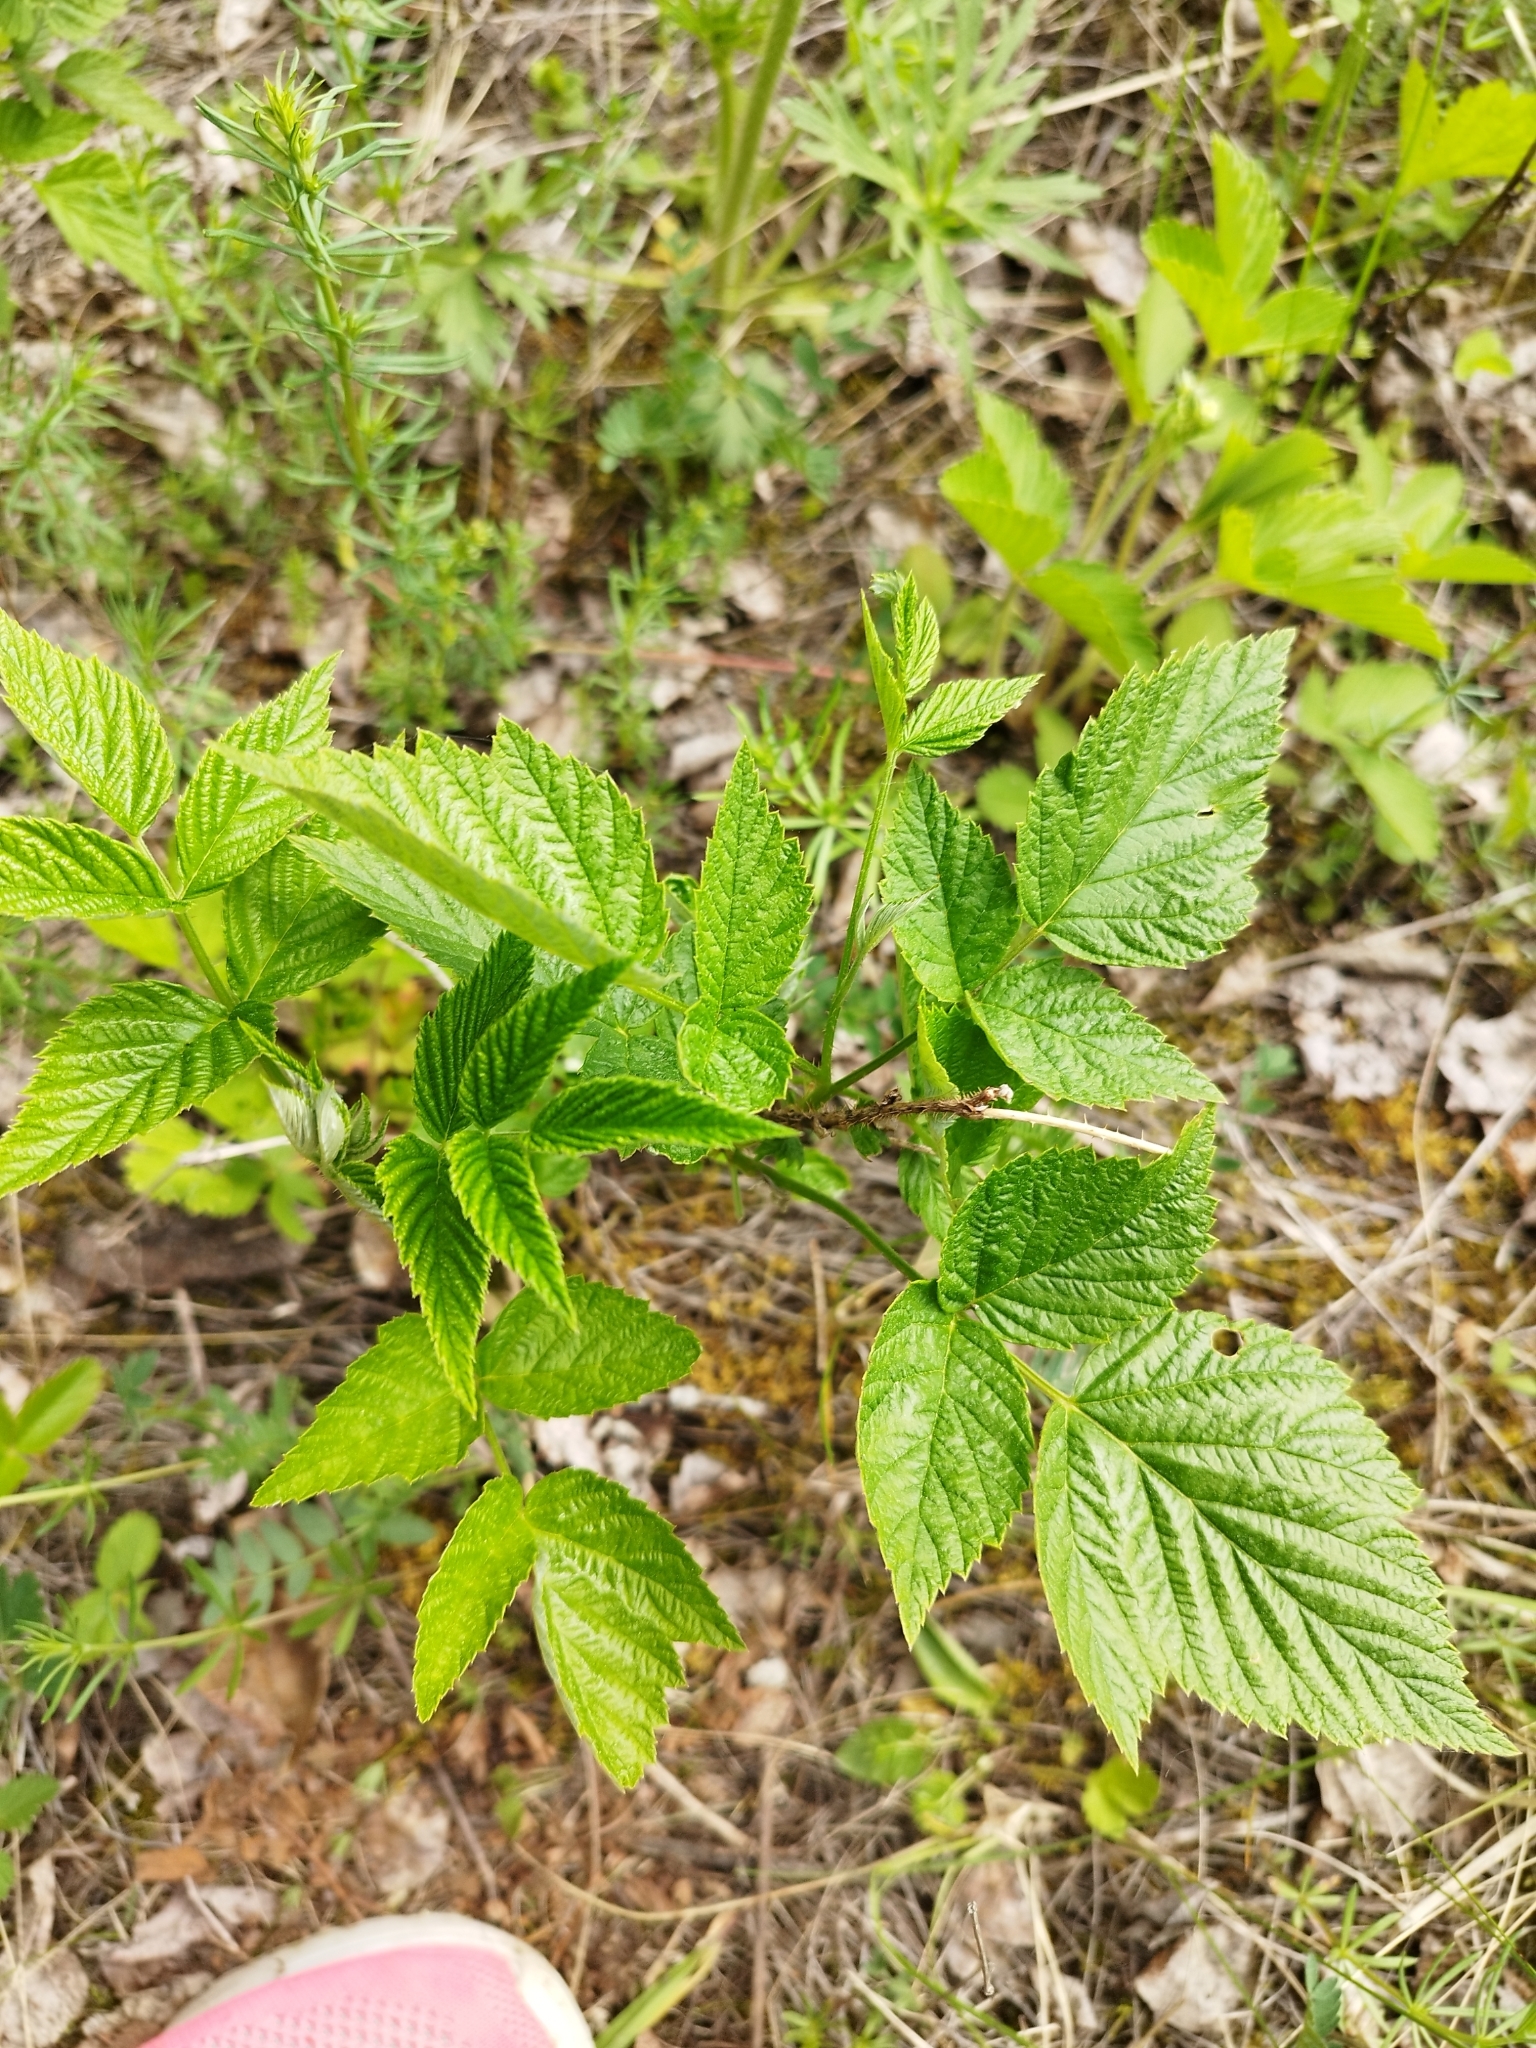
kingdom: Plantae
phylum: Tracheophyta
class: Magnoliopsida
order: Rosales
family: Rosaceae
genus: Rubus
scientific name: Rubus idaeus
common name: Raspberry
